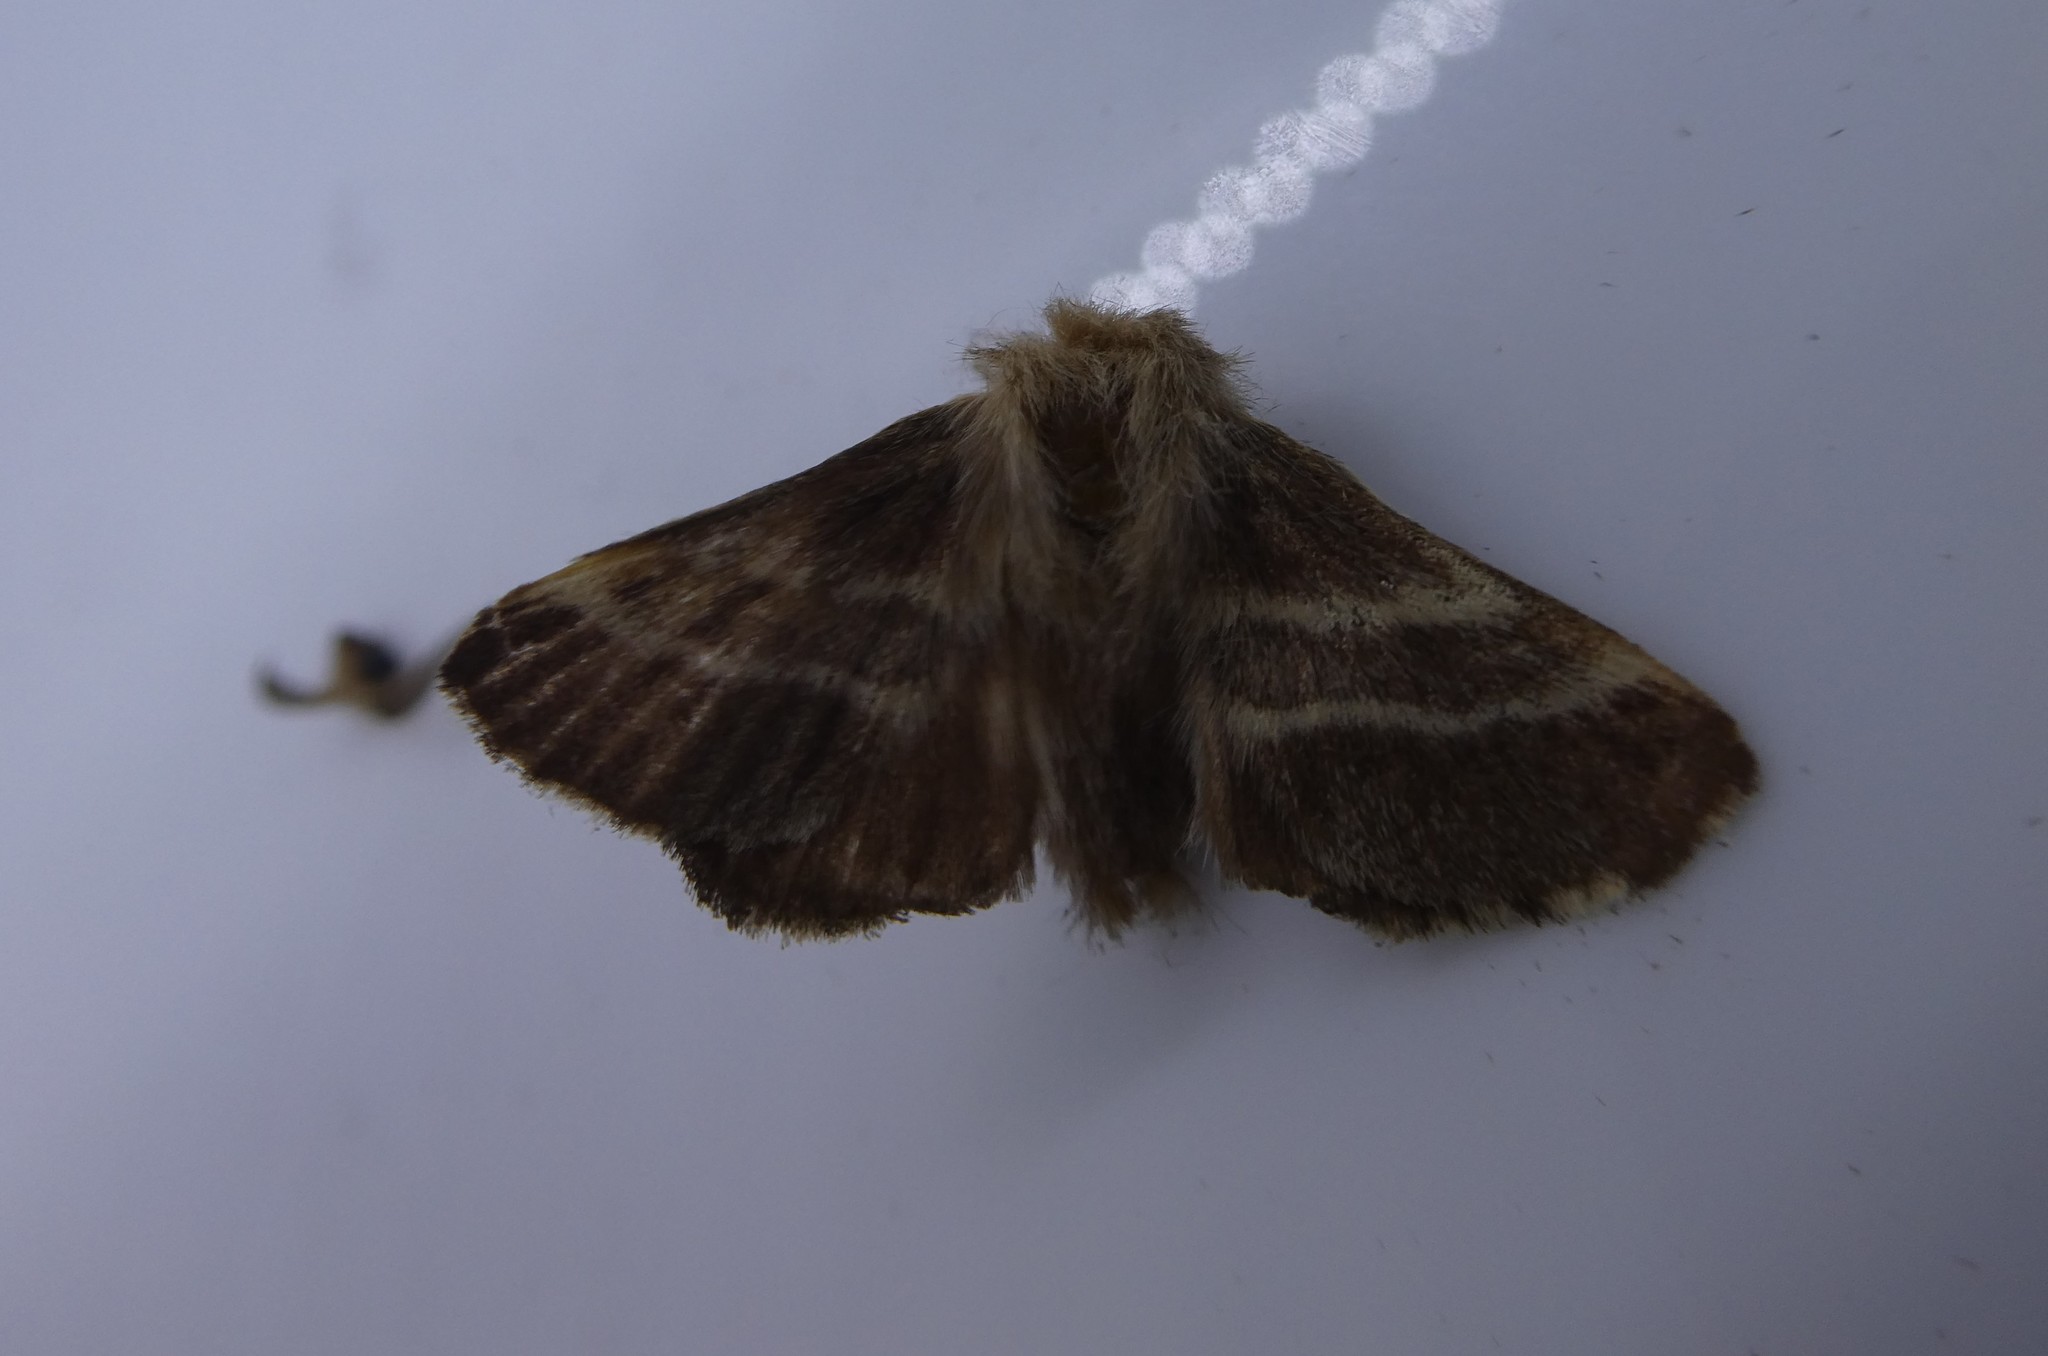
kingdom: Animalia
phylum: Arthropoda
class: Insecta
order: Lepidoptera
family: Lasiocampidae
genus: Malacosoma
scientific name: Malacosoma americana
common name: Eastern tent caterpillar moth
